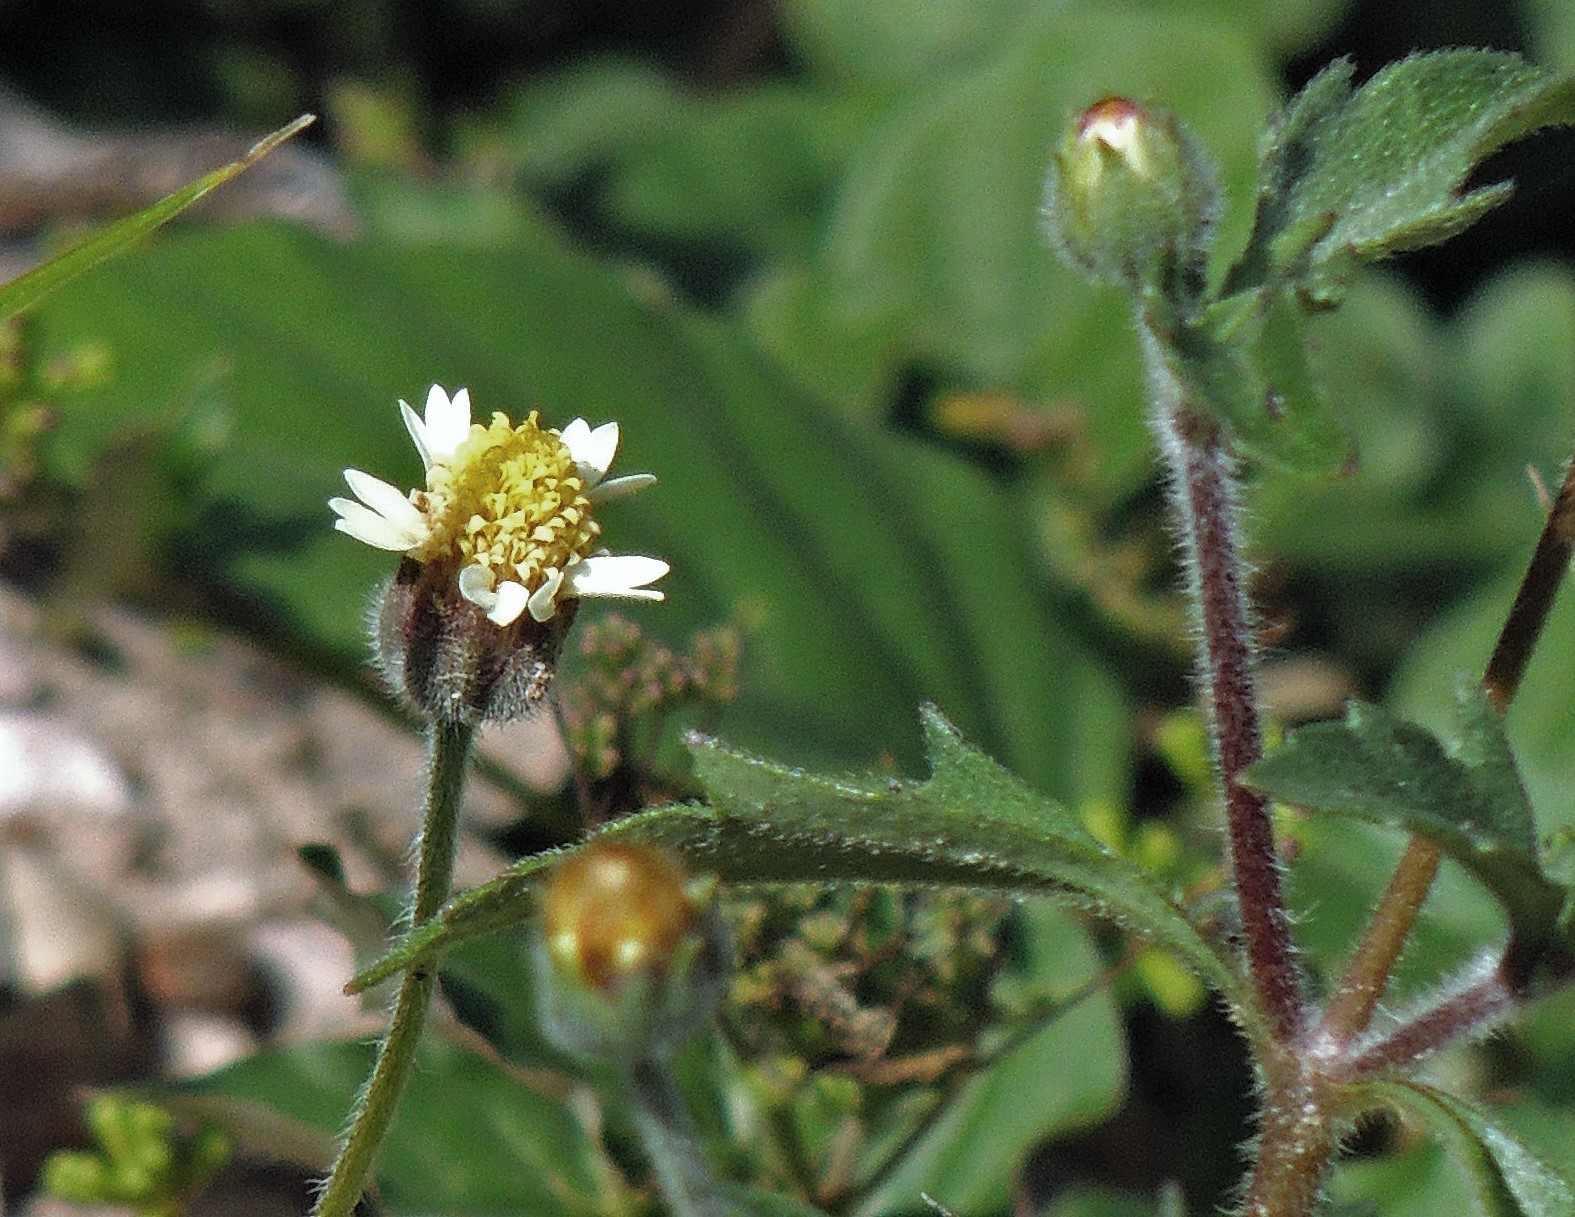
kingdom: Plantae
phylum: Tracheophyta
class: Magnoliopsida
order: Asterales
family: Asteraceae
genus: Tridax
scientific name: Tridax procumbens
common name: Coatbuttons
